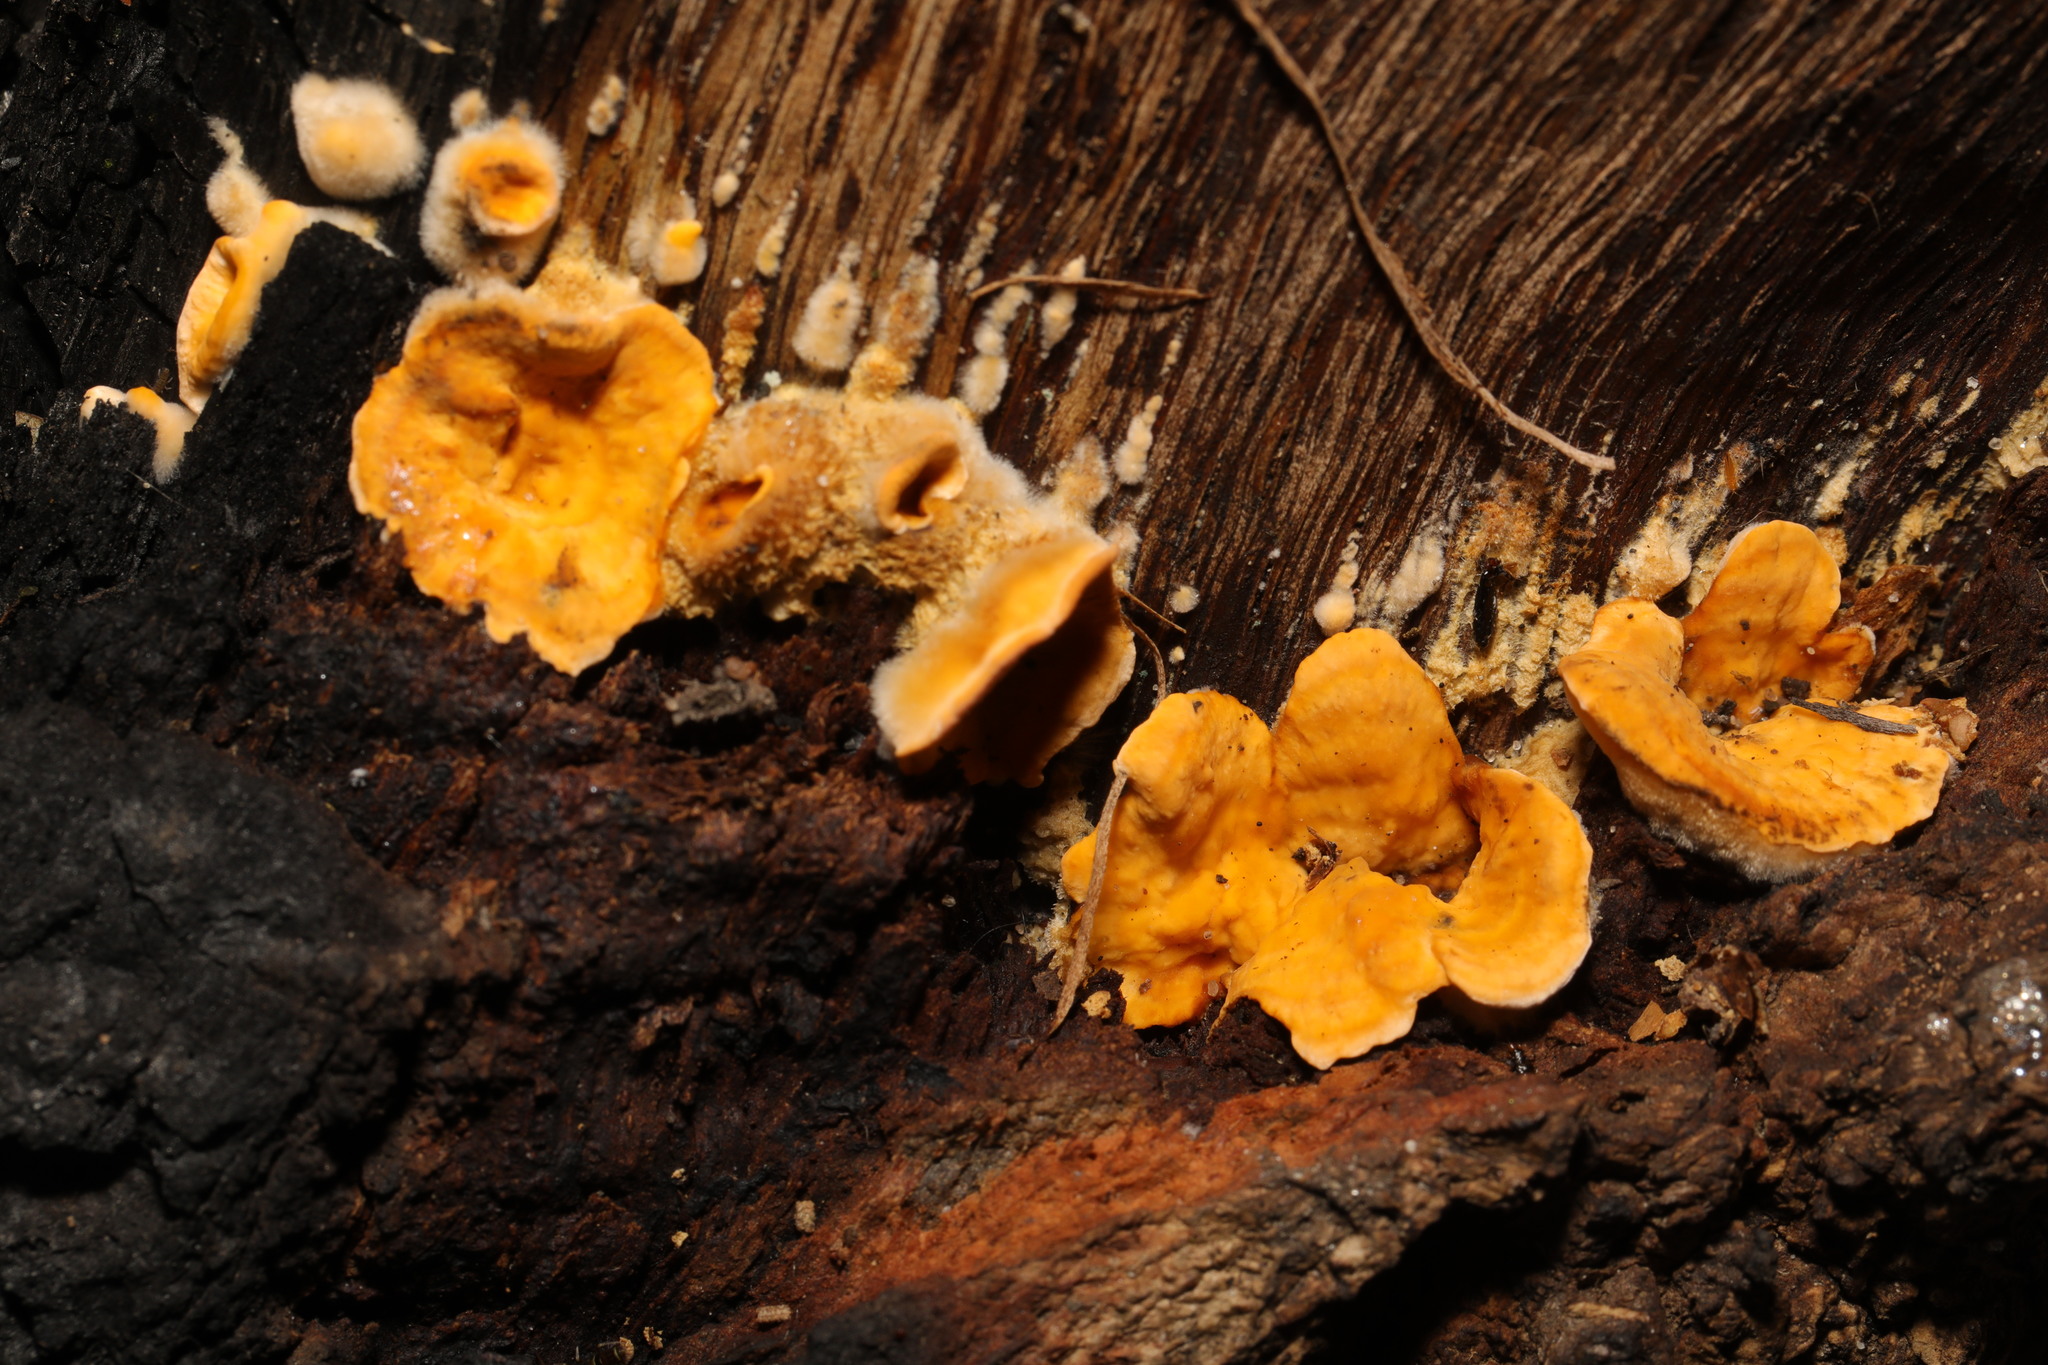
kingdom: Fungi
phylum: Basidiomycota
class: Agaricomycetes
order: Russulales
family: Stereaceae
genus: Stereum
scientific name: Stereum hirsutum
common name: Hairy curtain crust
